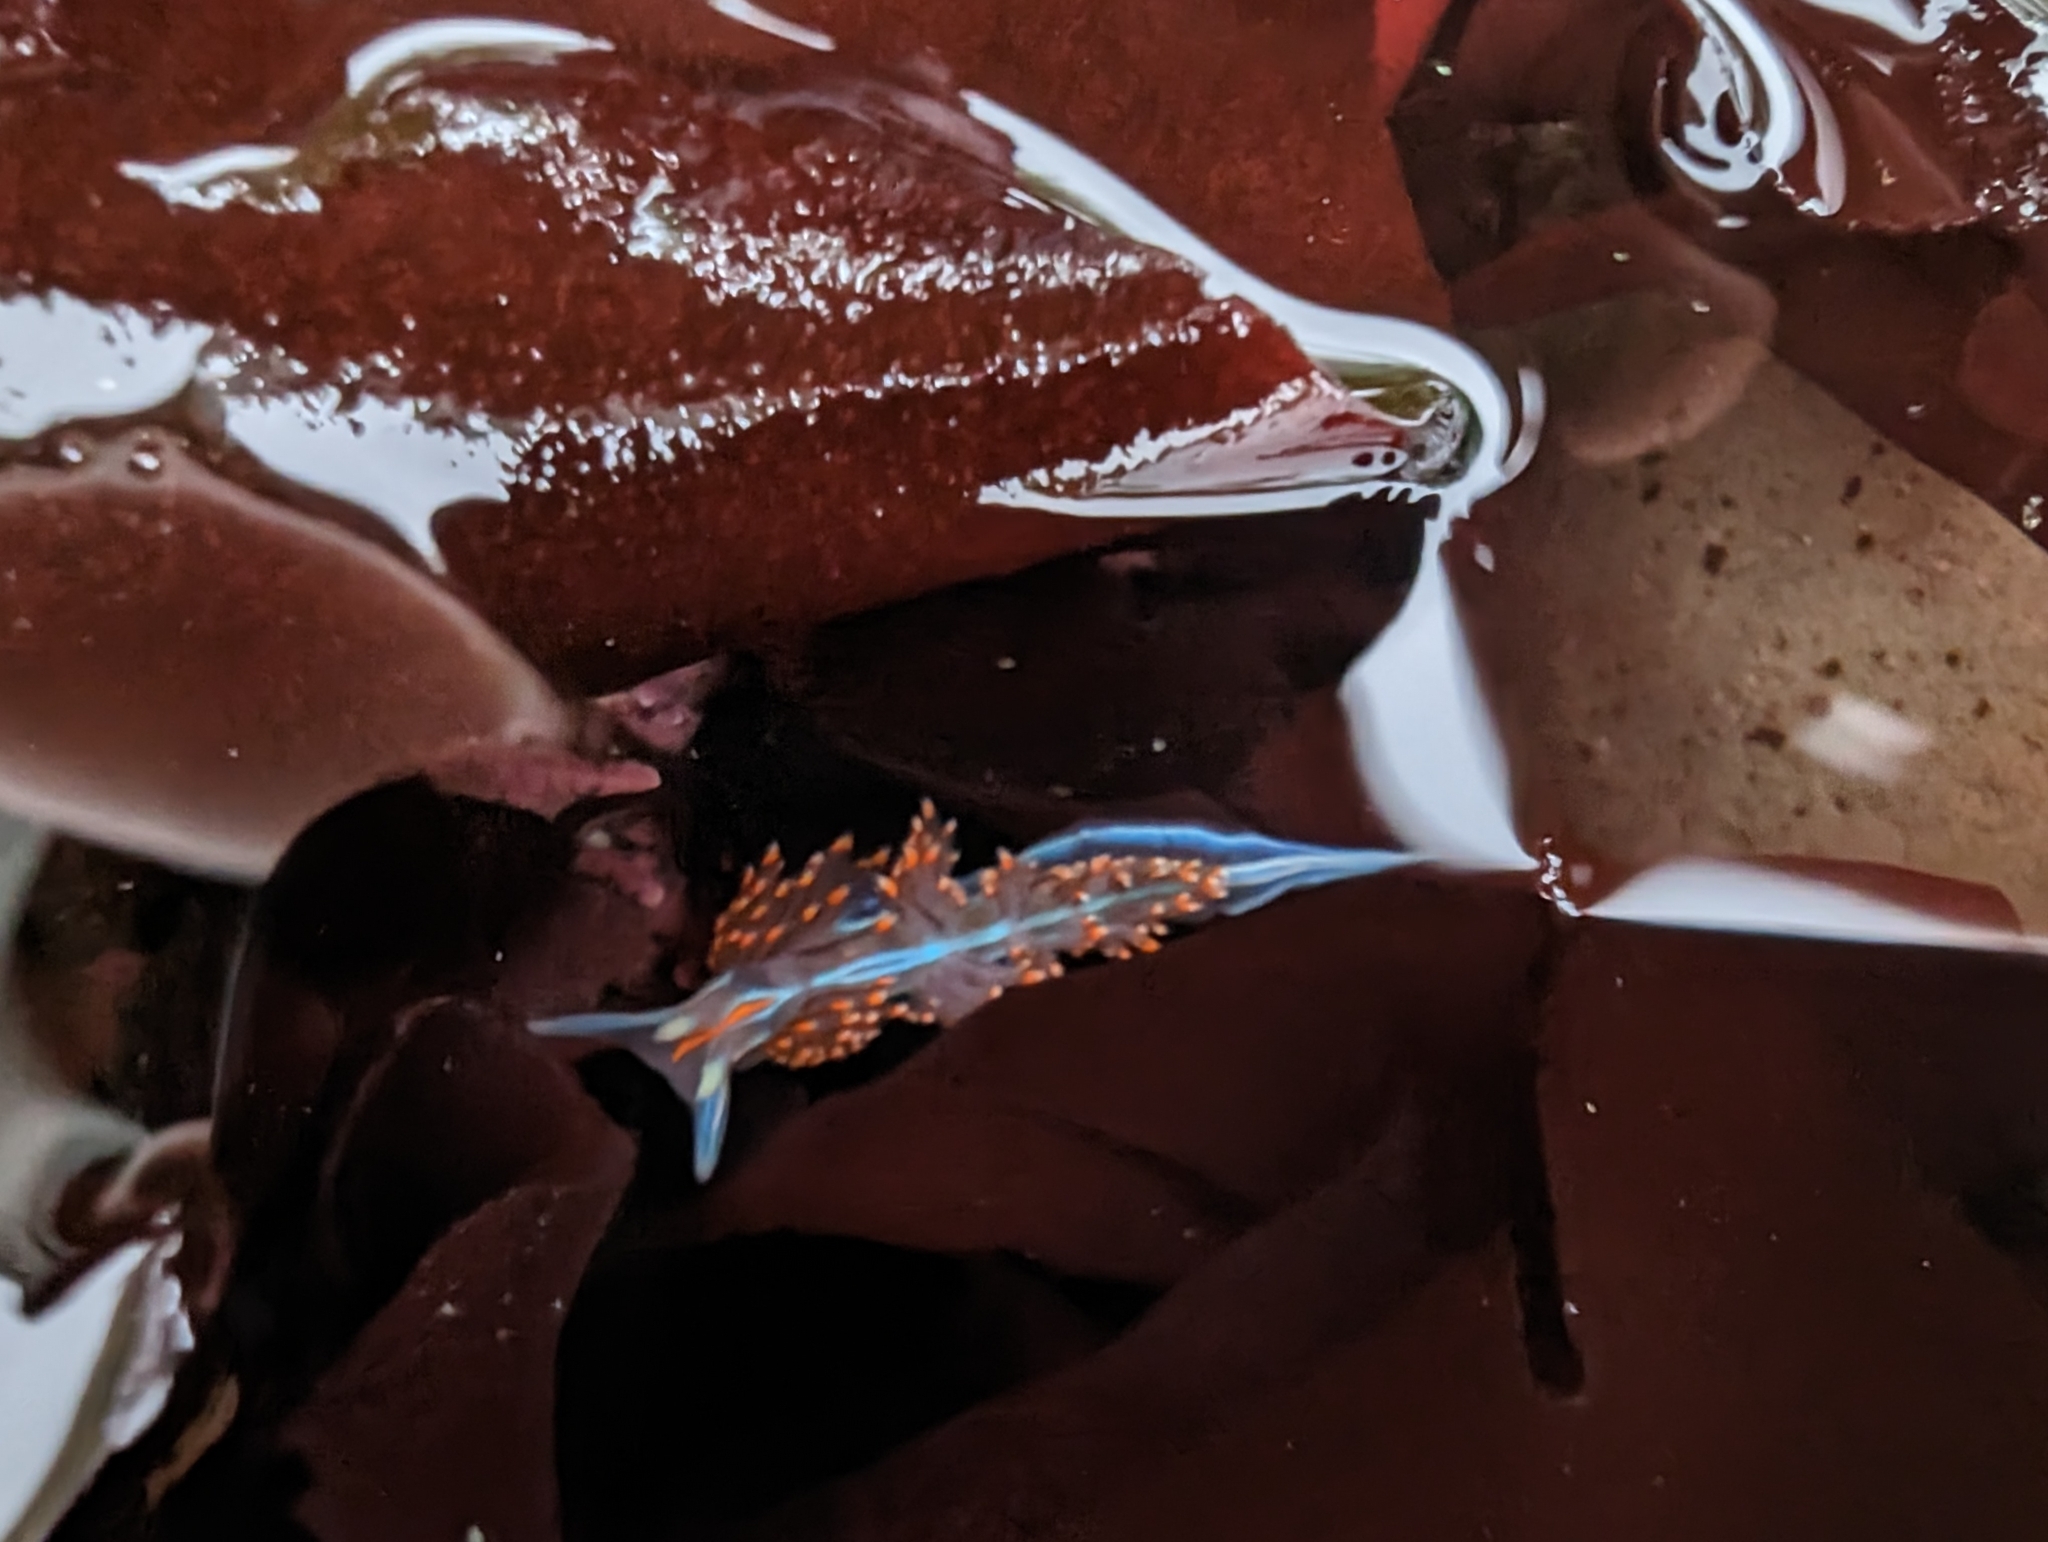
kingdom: Animalia
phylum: Mollusca
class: Gastropoda
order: Nudibranchia
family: Myrrhinidae
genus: Hermissenda
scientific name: Hermissenda opalescens
